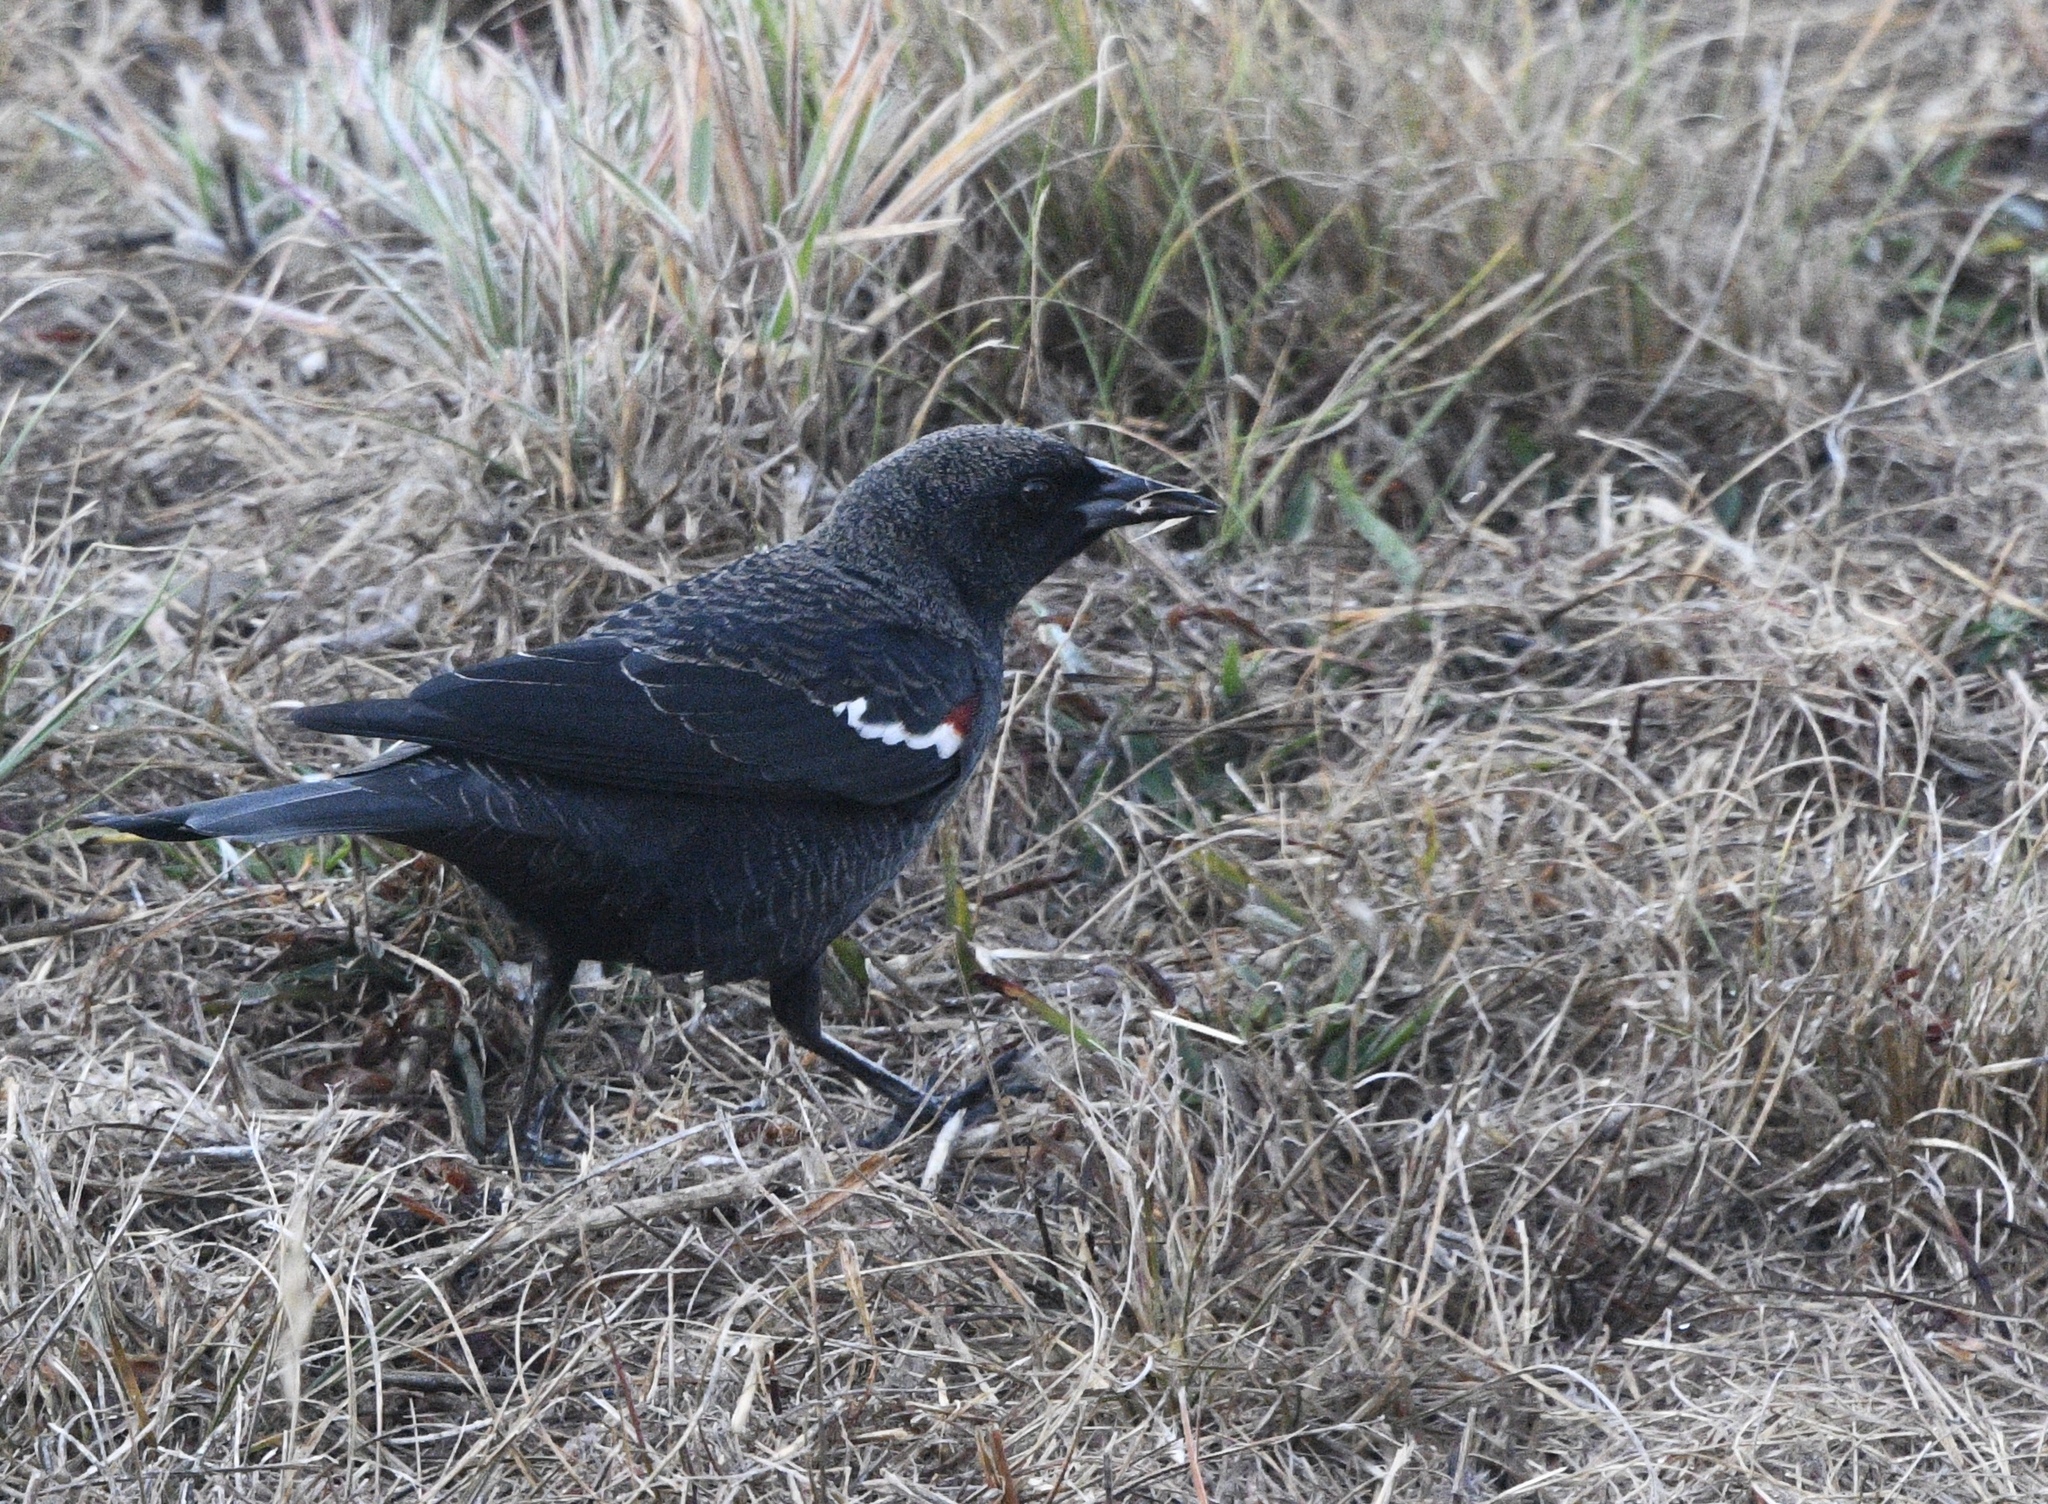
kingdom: Animalia
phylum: Chordata
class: Aves
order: Passeriformes
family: Icteridae
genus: Agelaius
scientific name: Agelaius tricolor
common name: Tricolored blackbird
